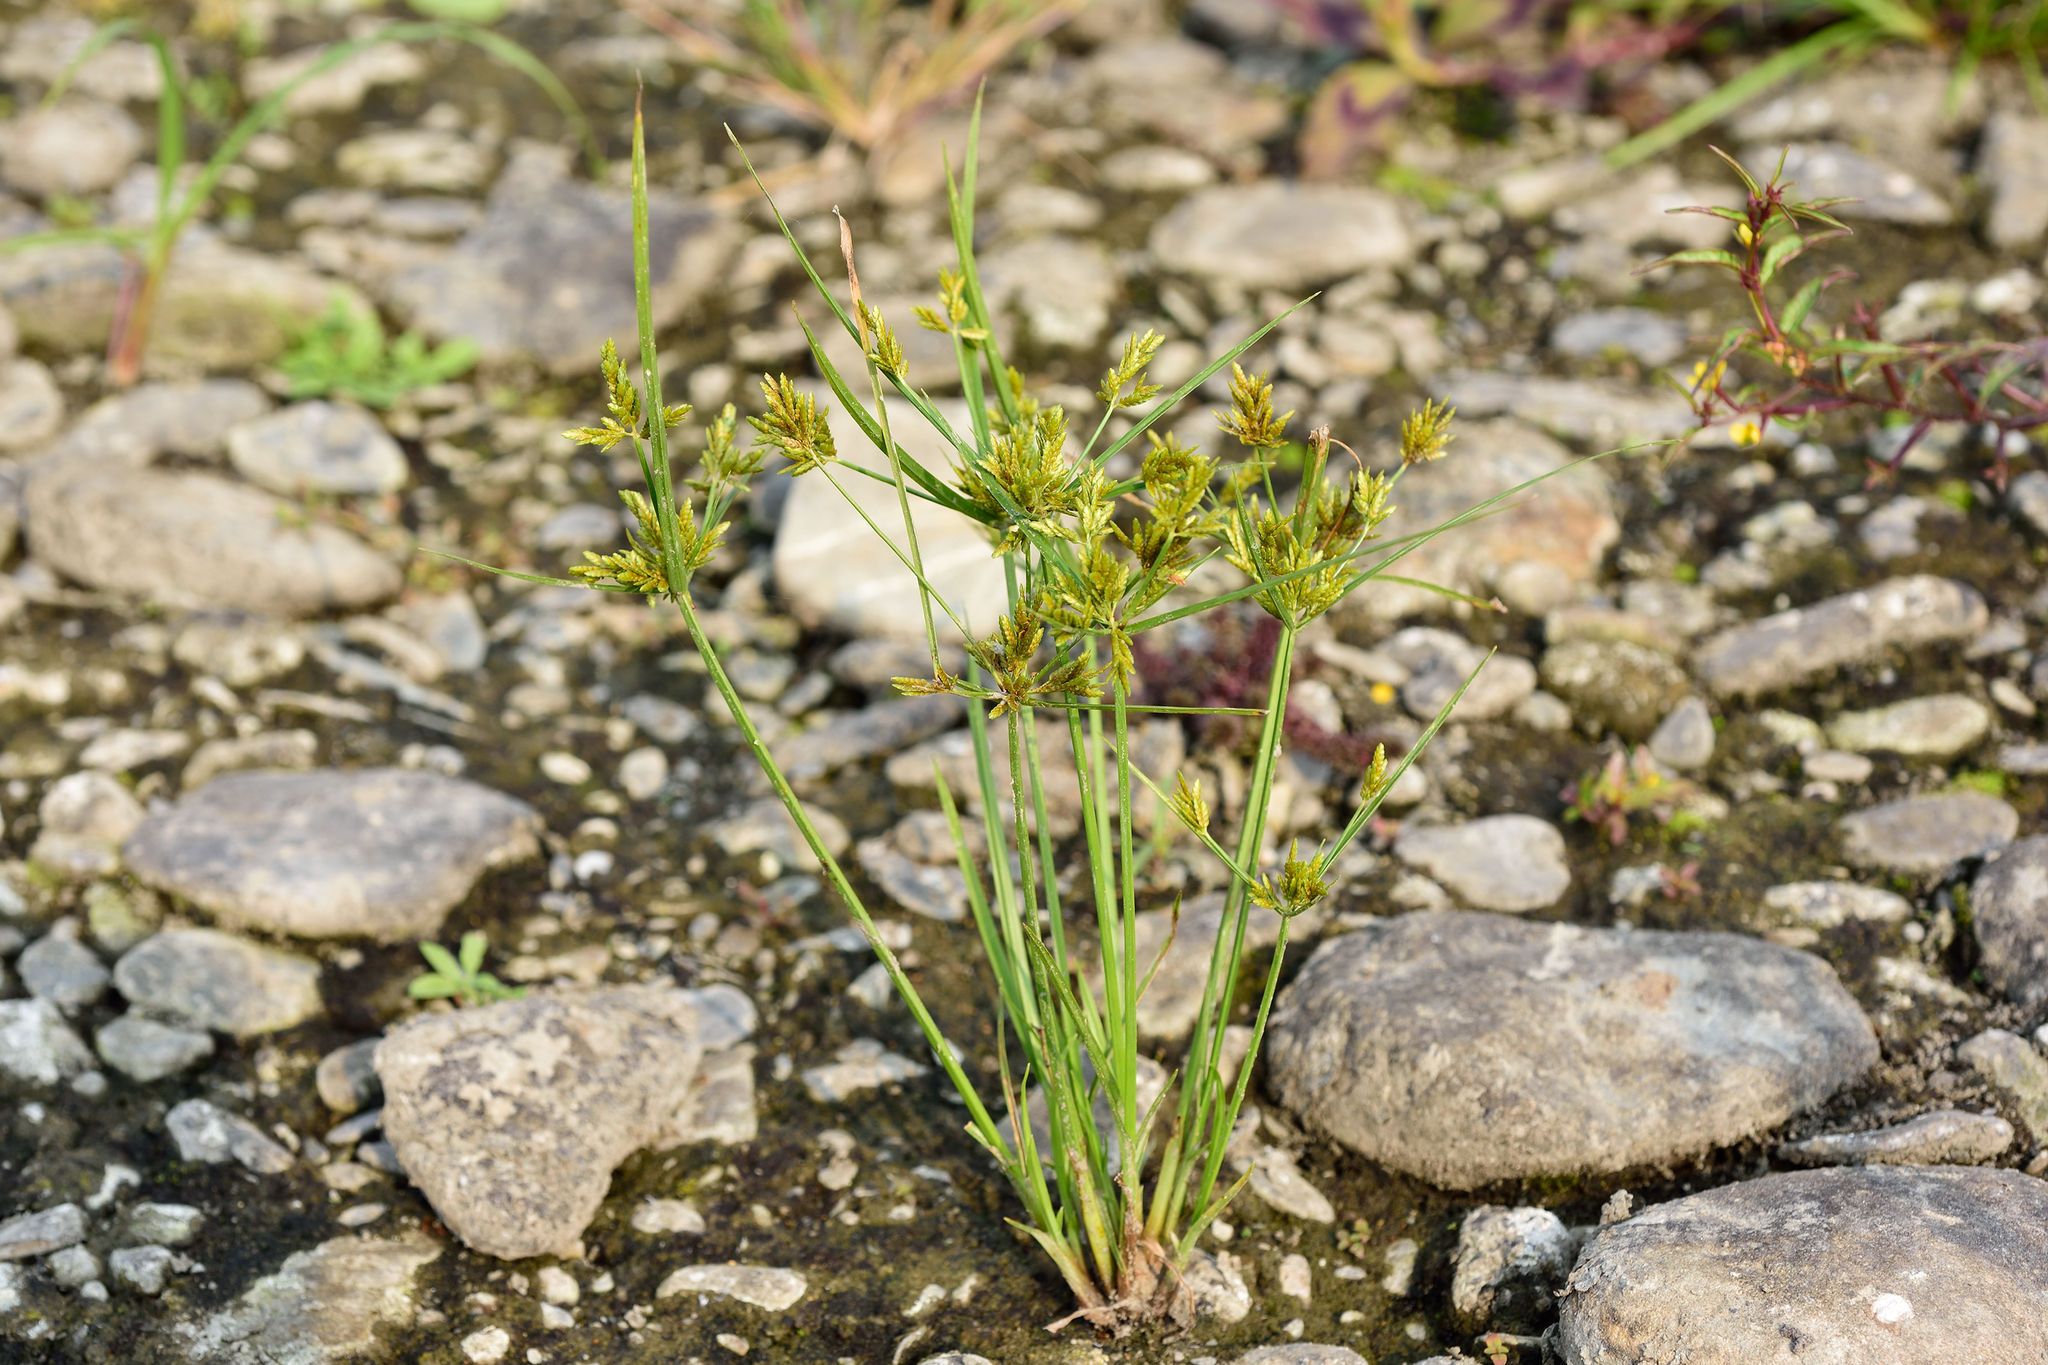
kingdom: Plantae
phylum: Tracheophyta
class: Liliopsida
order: Poales
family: Cyperaceae
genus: Cyperus
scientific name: Cyperus iria
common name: Ricefield flatsedge
